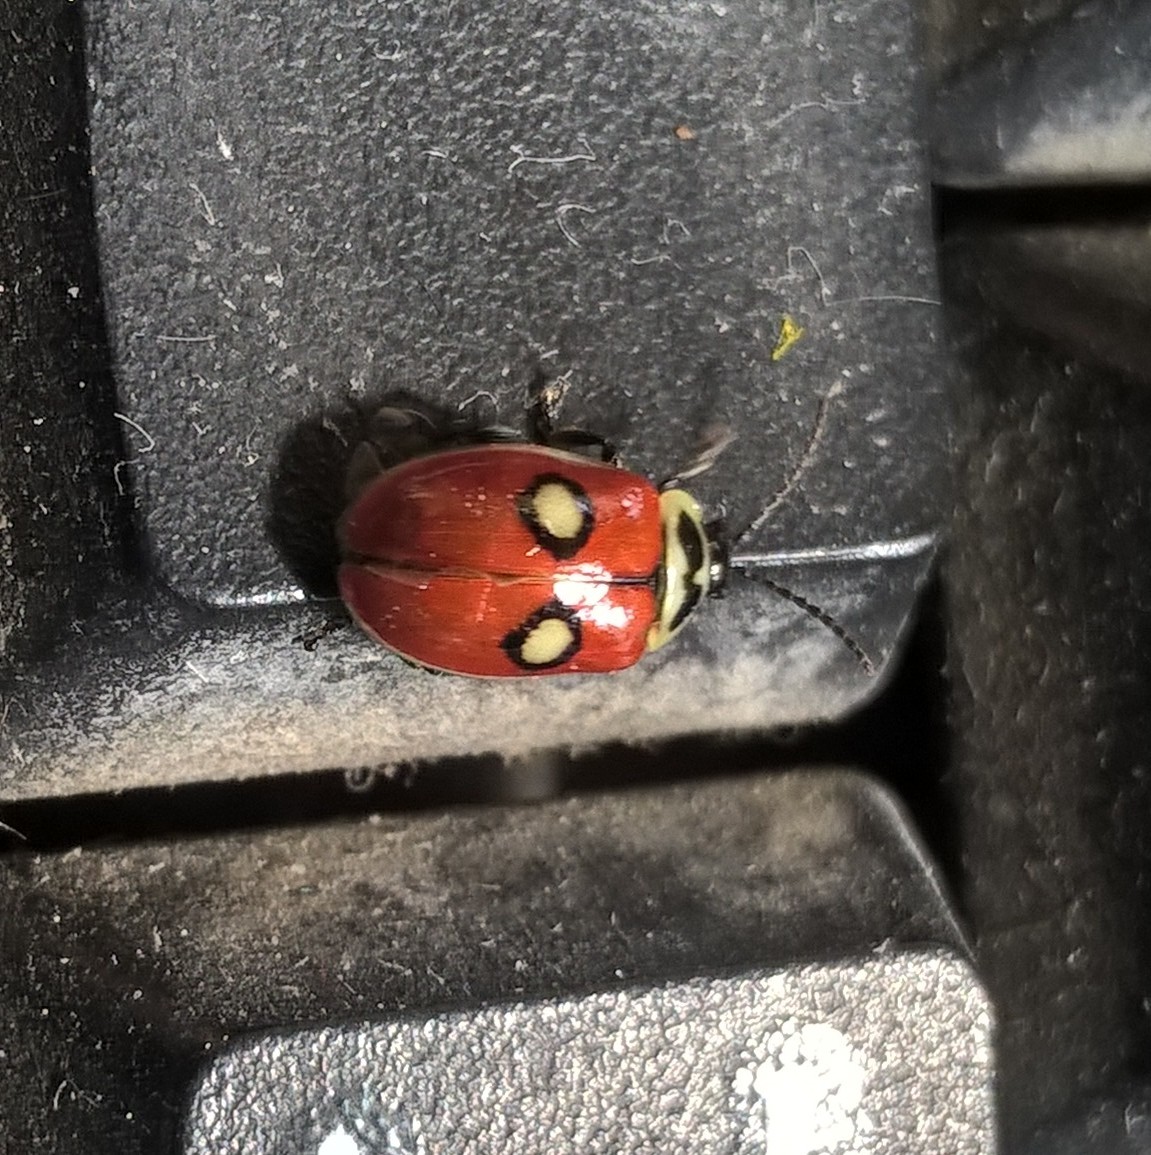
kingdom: Animalia
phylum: Arthropoda
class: Insecta
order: Coleoptera
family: Chrysomelidae
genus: Alagoasa
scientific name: Alagoasa
